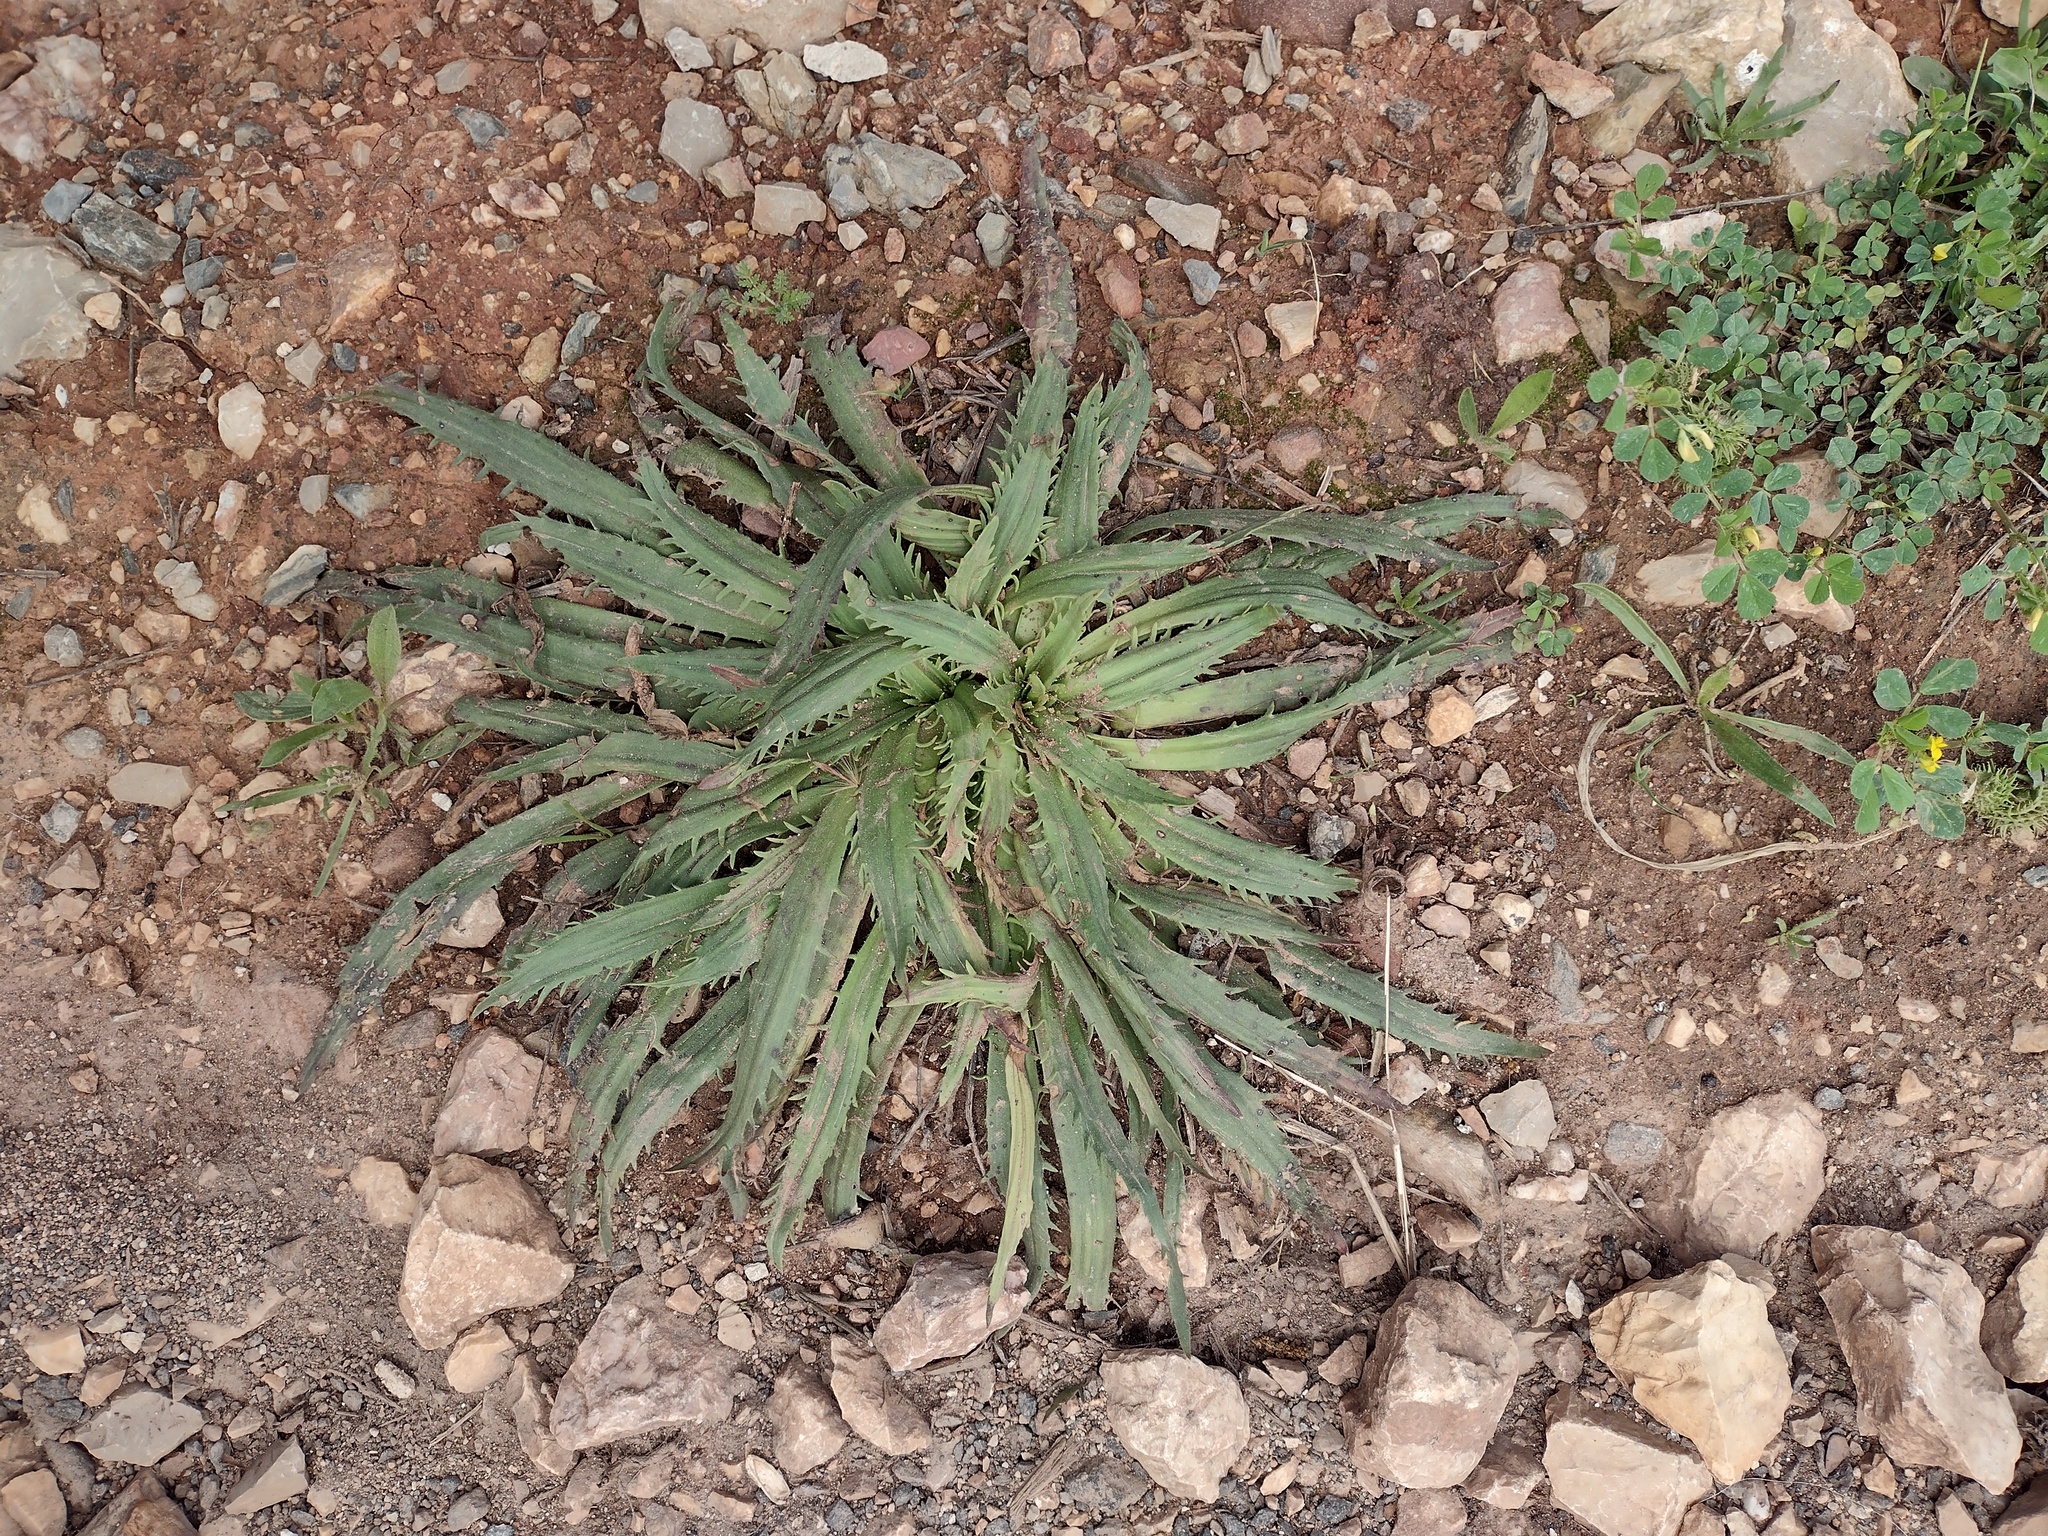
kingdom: Plantae
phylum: Tracheophyta
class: Magnoliopsida
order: Lamiales
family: Plantaginaceae
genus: Plantago
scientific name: Plantago serraria
